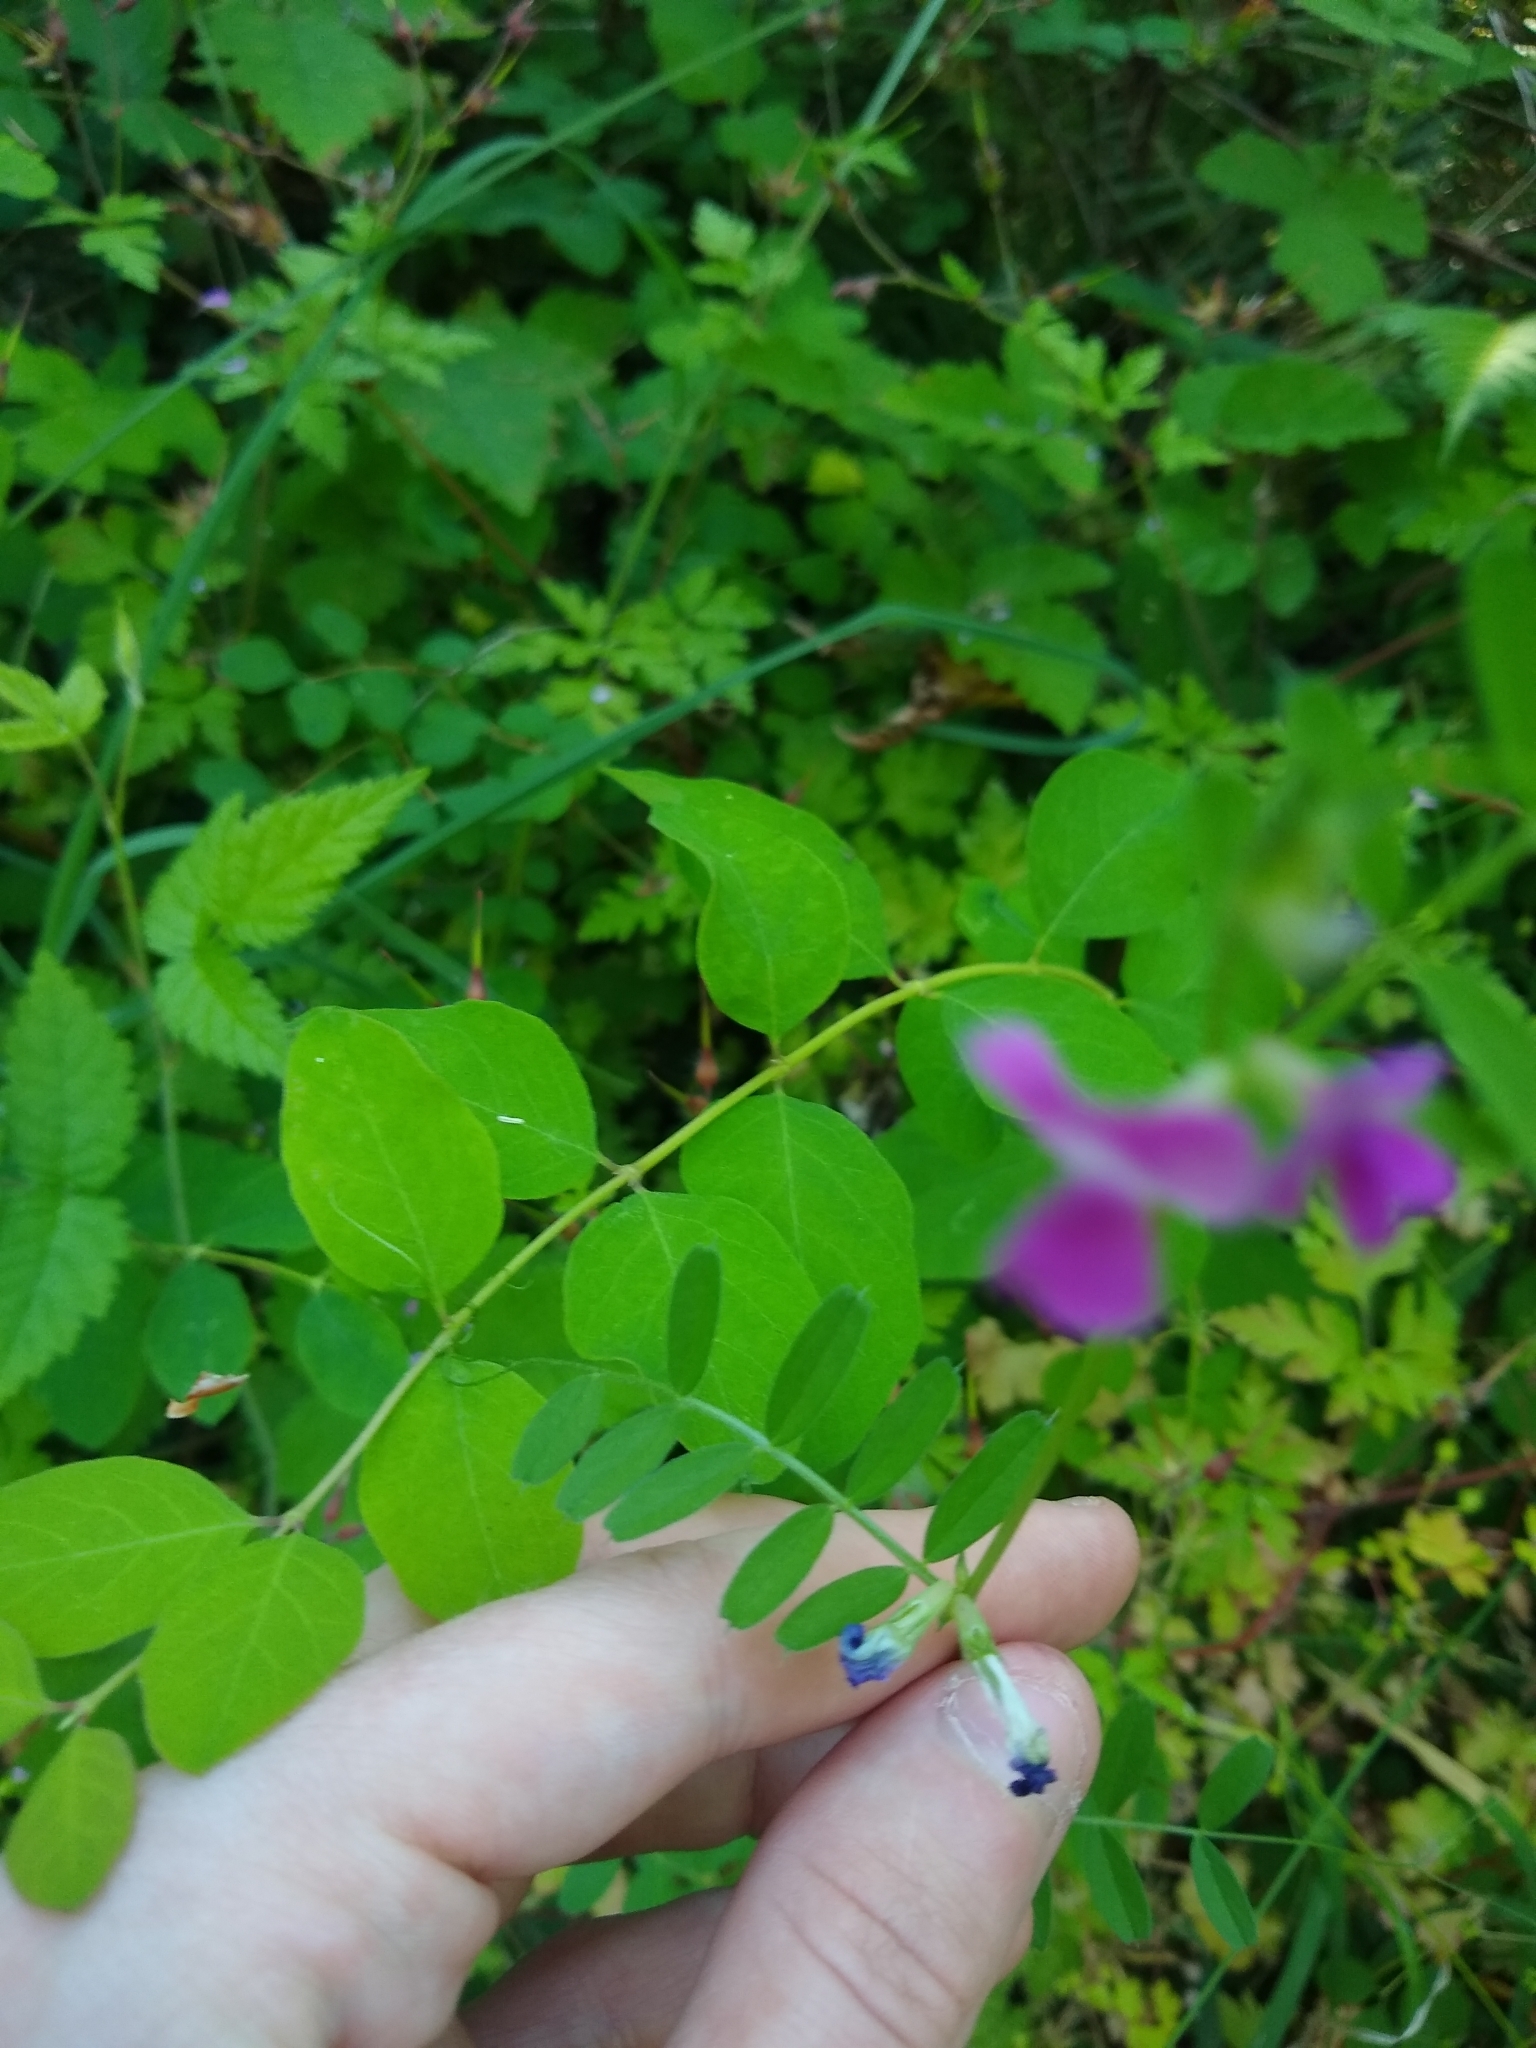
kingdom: Plantae
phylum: Tracheophyta
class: Magnoliopsida
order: Fabales
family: Fabaceae
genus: Vicia
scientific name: Vicia sativa
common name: Garden vetch
